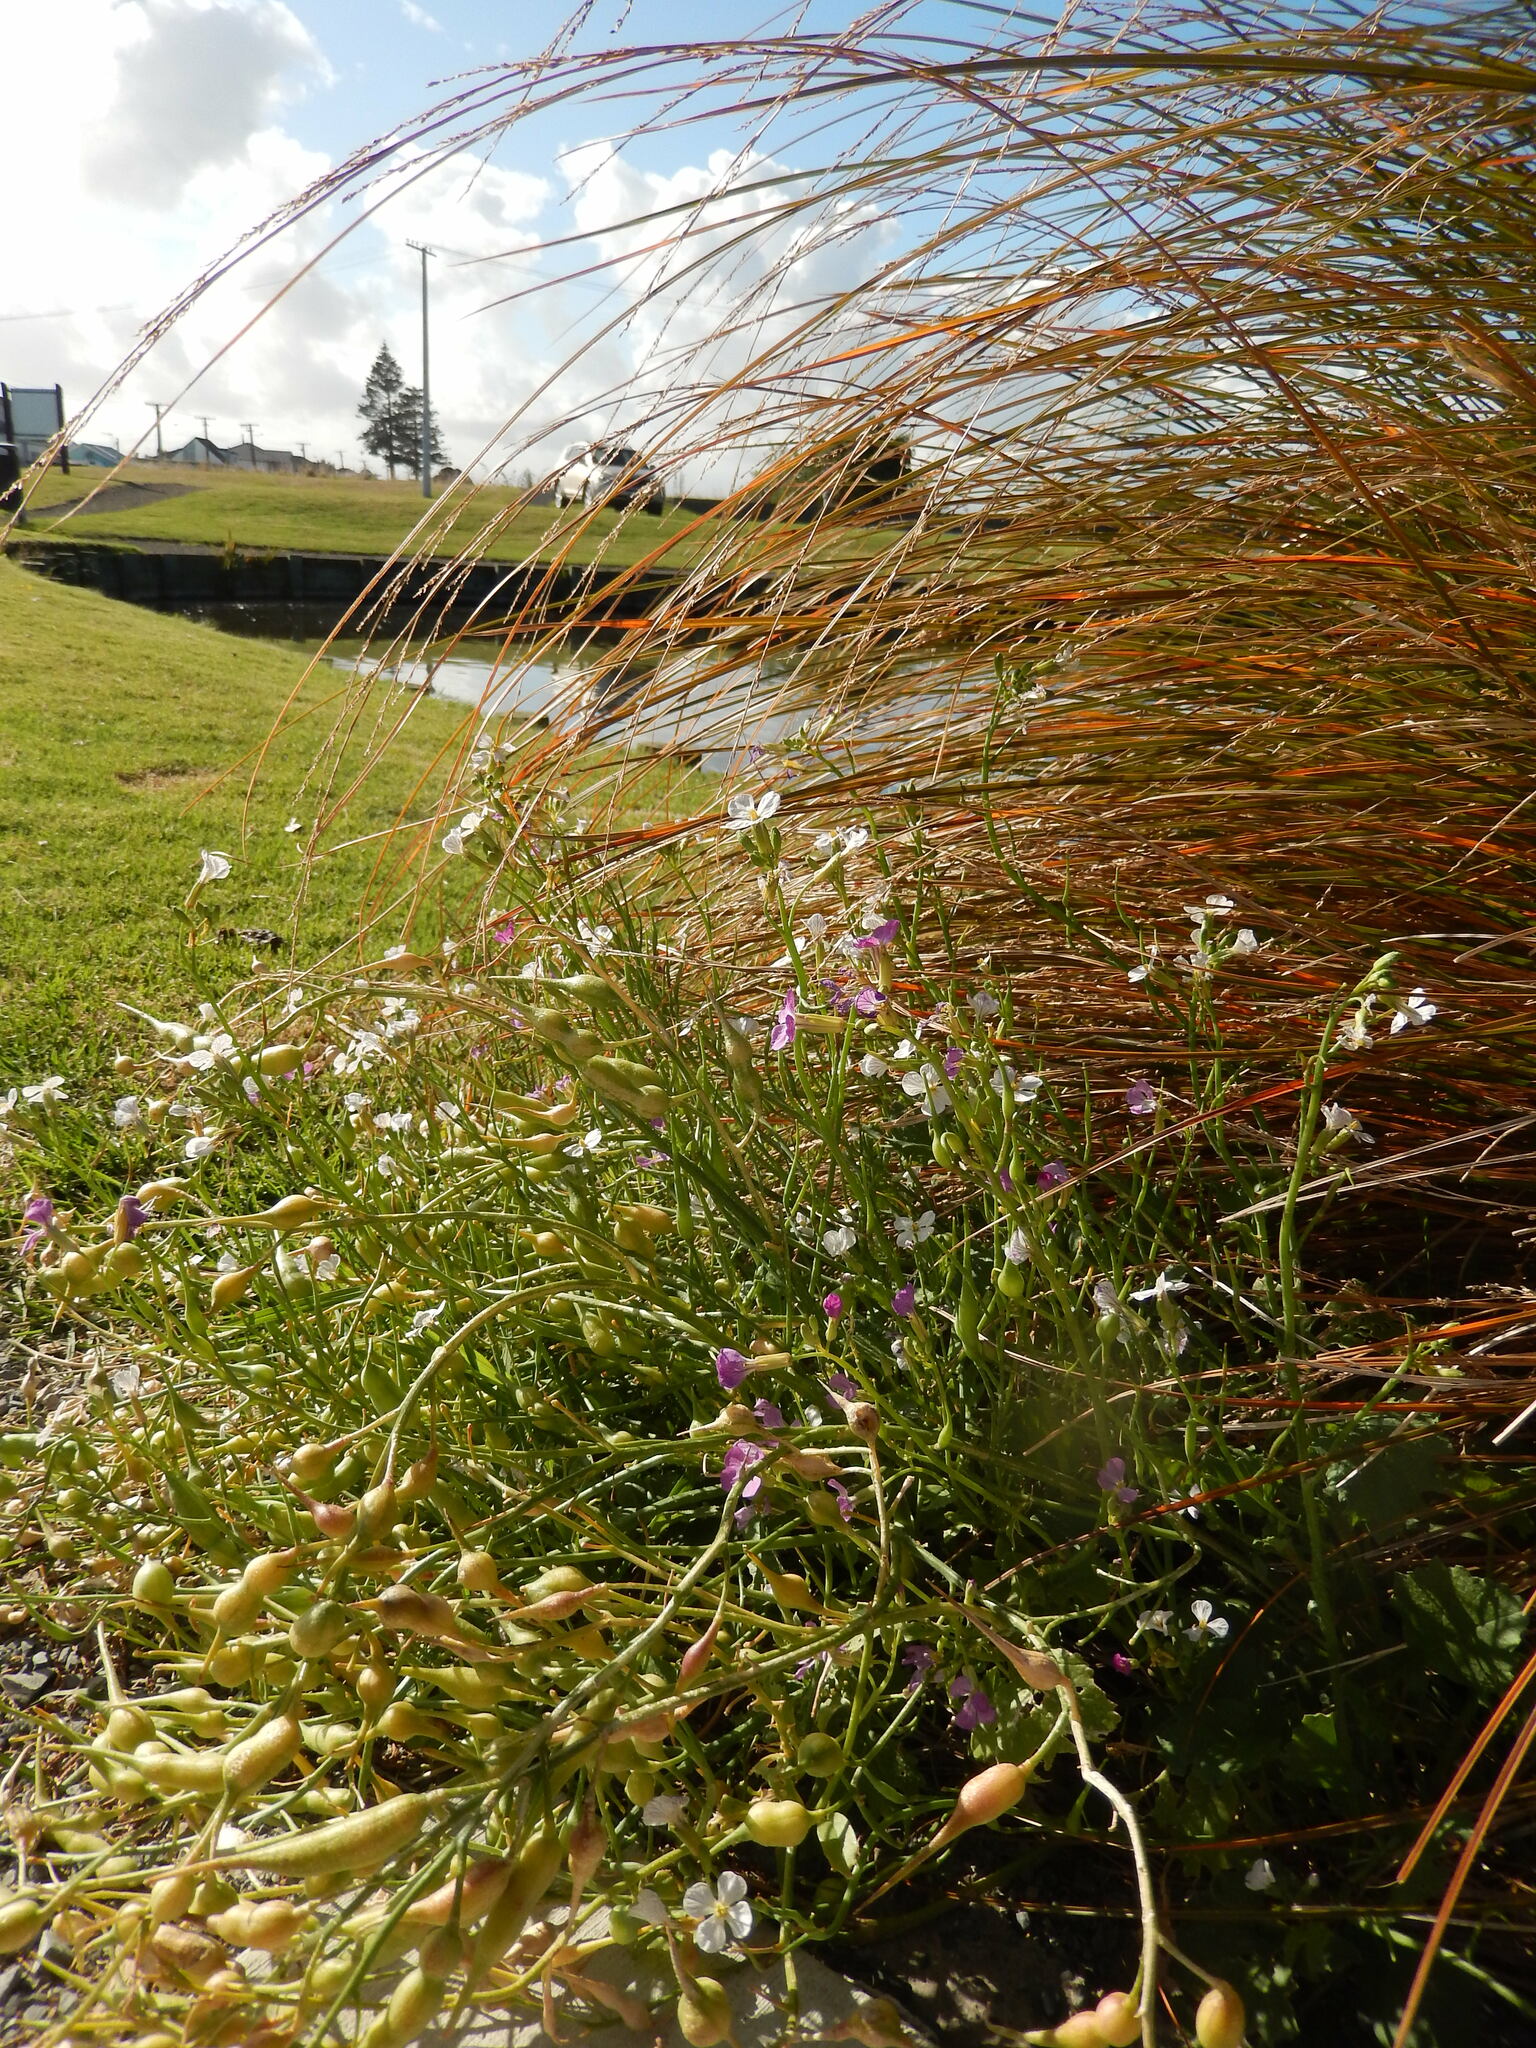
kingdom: Plantae
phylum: Tracheophyta
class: Magnoliopsida
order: Brassicales
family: Brassicaceae
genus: Raphanus
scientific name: Raphanus sativus
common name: Cultivated radish
